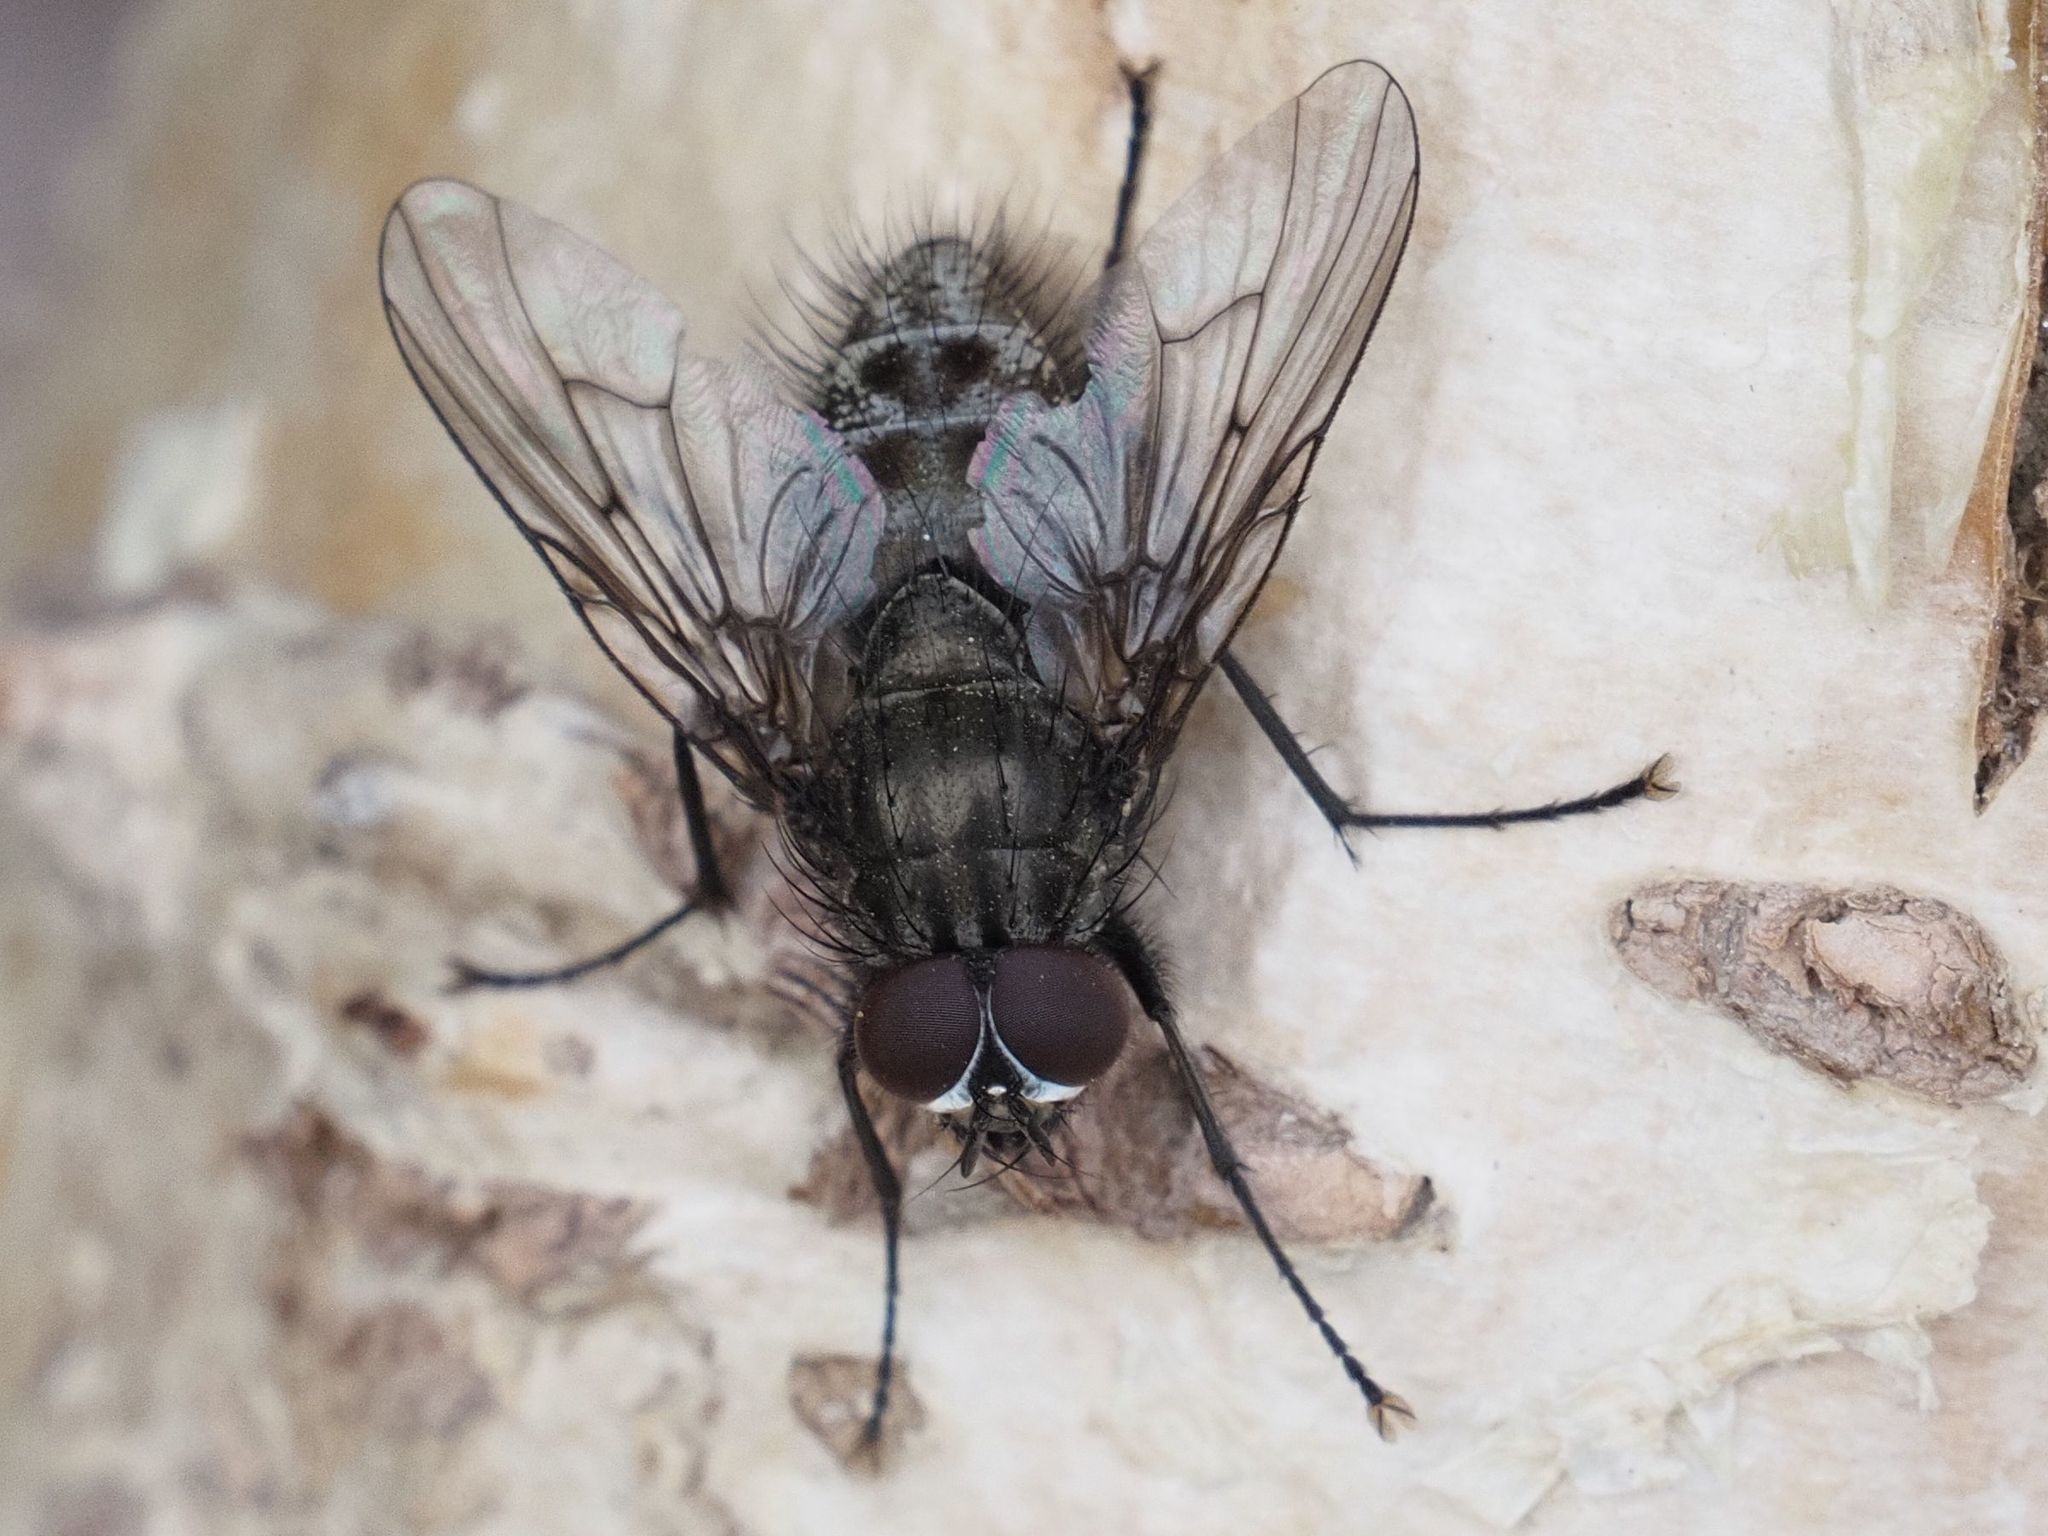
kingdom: Animalia
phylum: Arthropoda
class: Insecta
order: Diptera
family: Muscidae
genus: Helina
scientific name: Helina evecta
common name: Muscid fly
